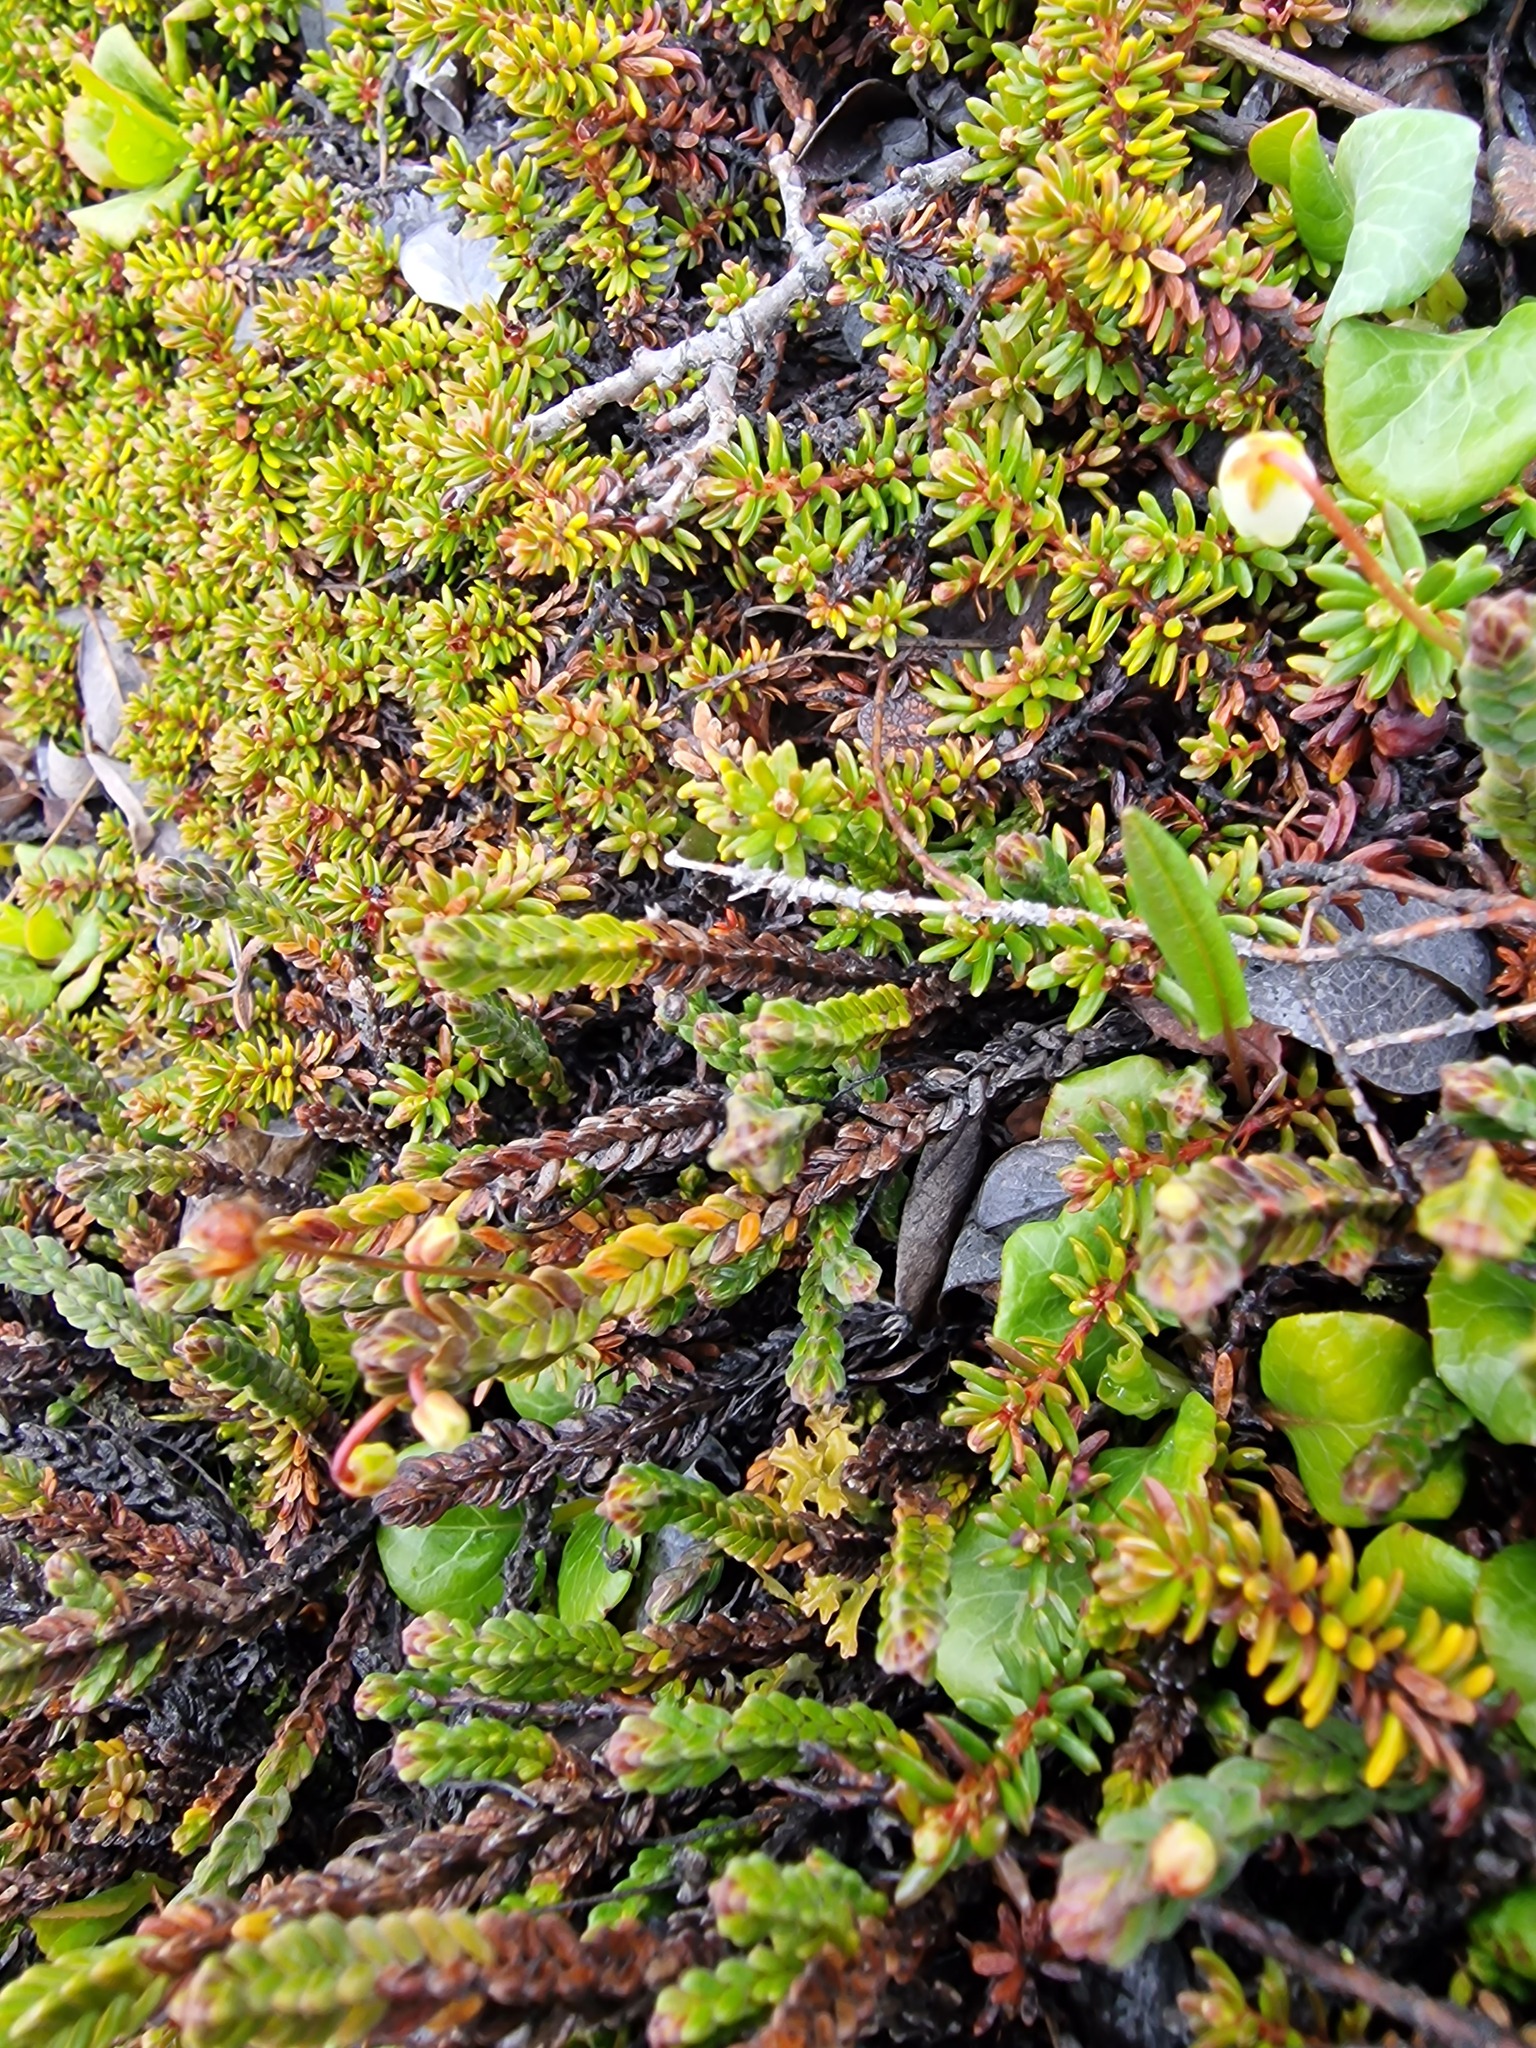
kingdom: Plantae
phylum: Tracheophyta
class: Magnoliopsida
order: Ericales
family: Ericaceae
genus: Cassiope
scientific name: Cassiope tetragona
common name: Arctic bell heather
